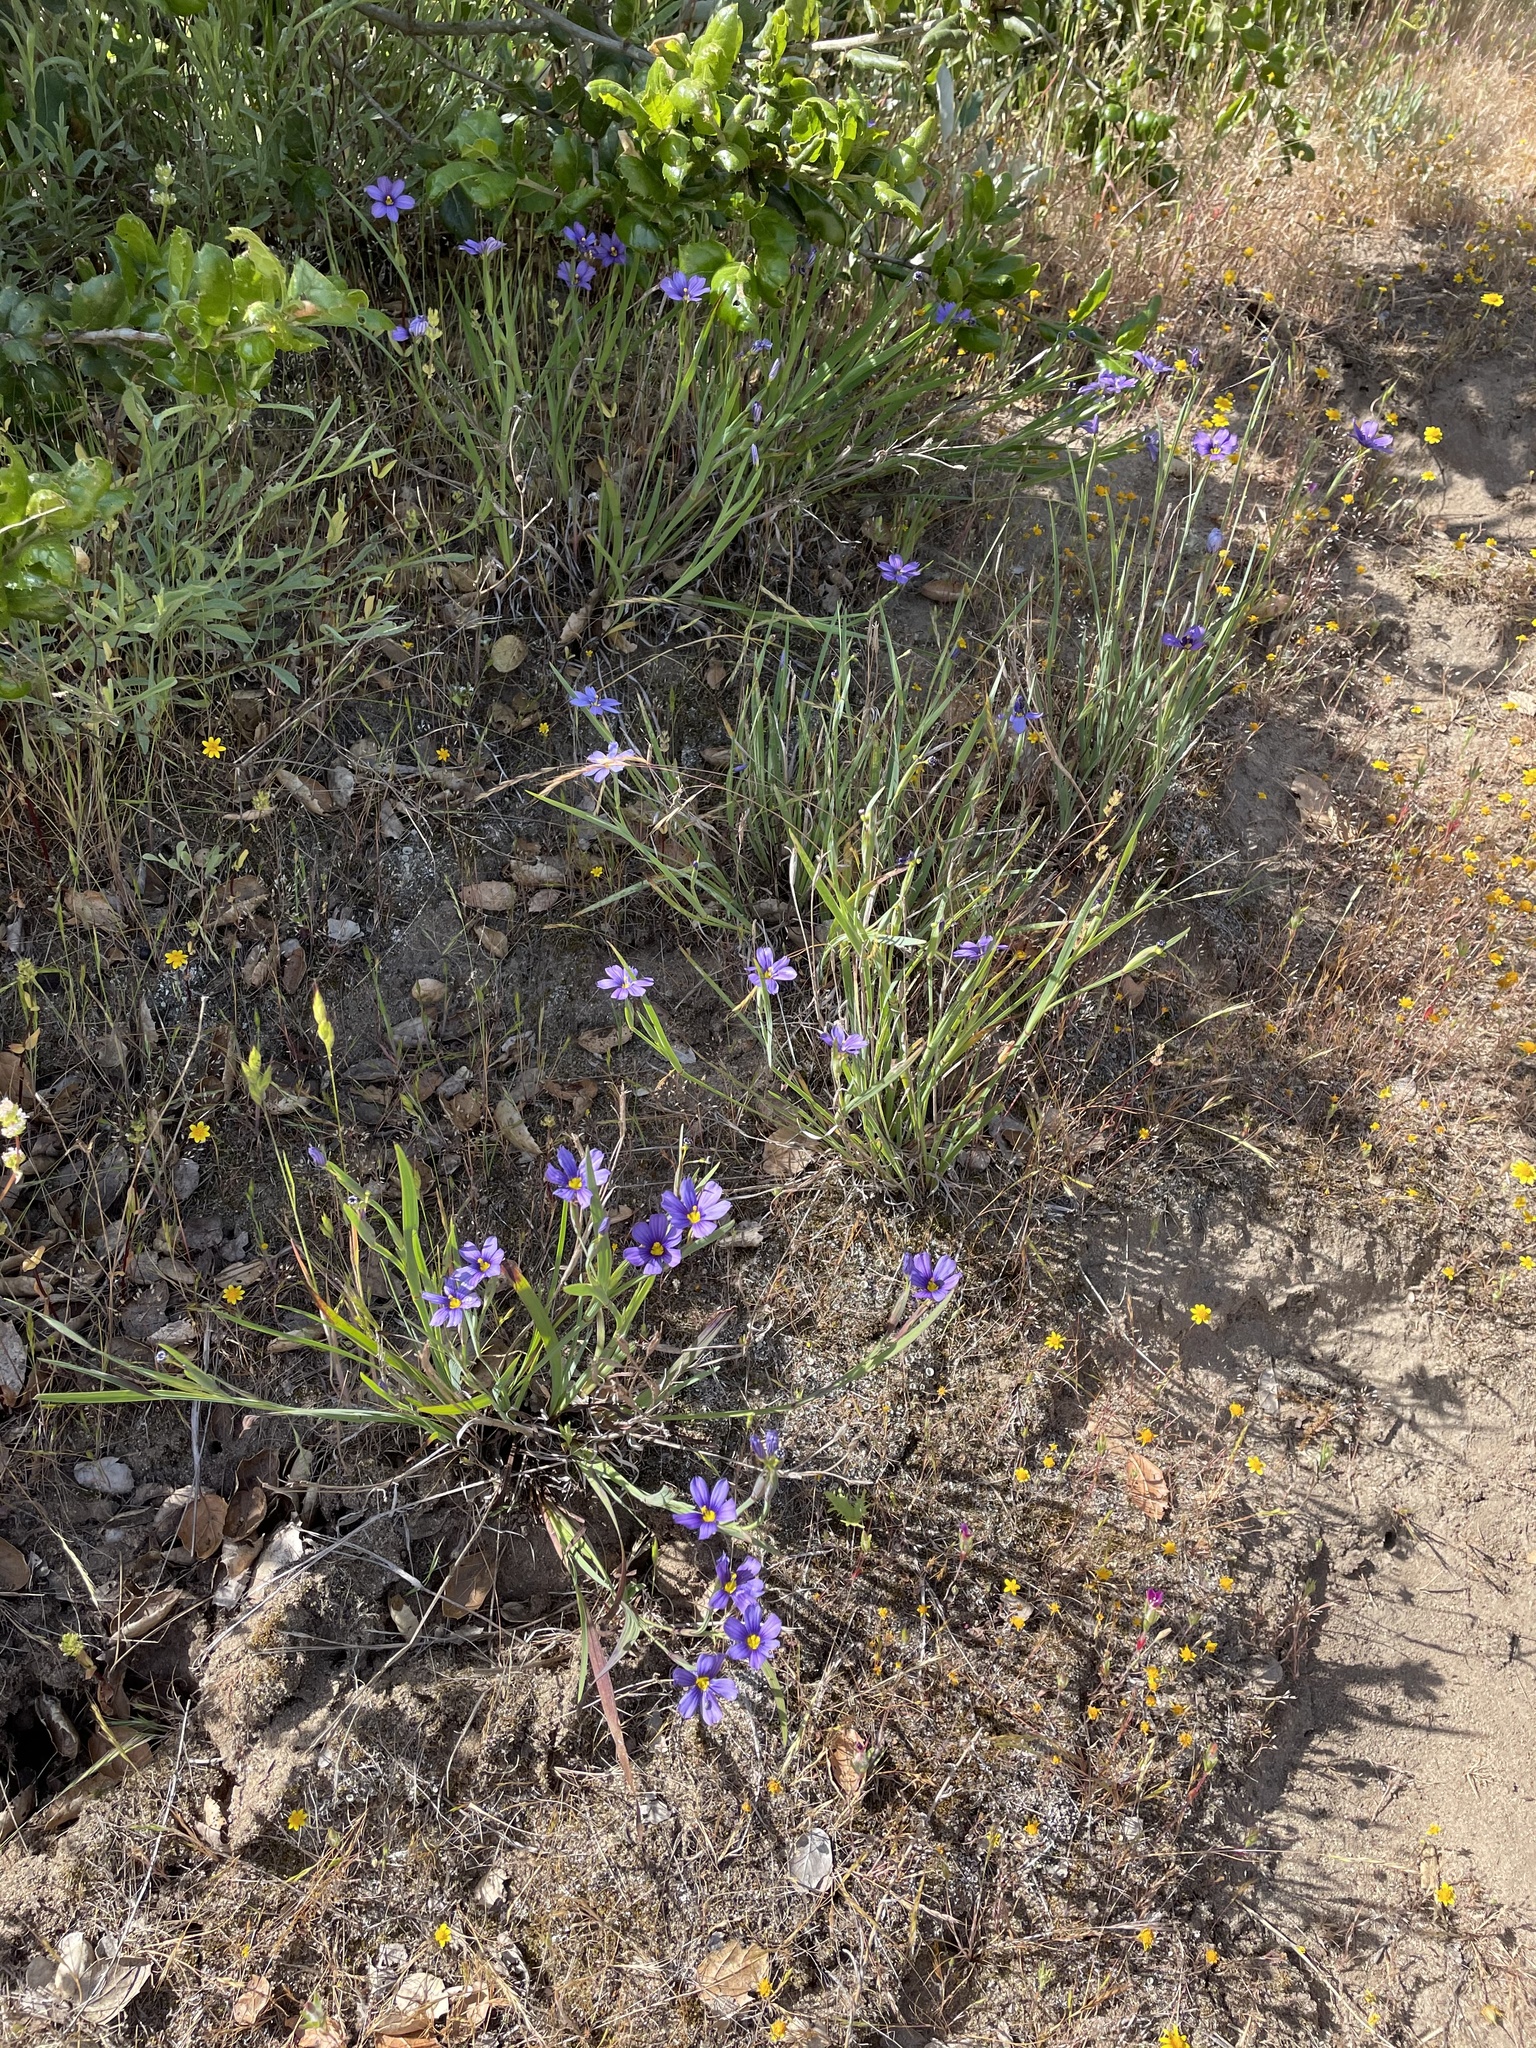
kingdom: Plantae
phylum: Tracheophyta
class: Liliopsida
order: Asparagales
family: Iridaceae
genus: Sisyrinchium
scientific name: Sisyrinchium bellum
